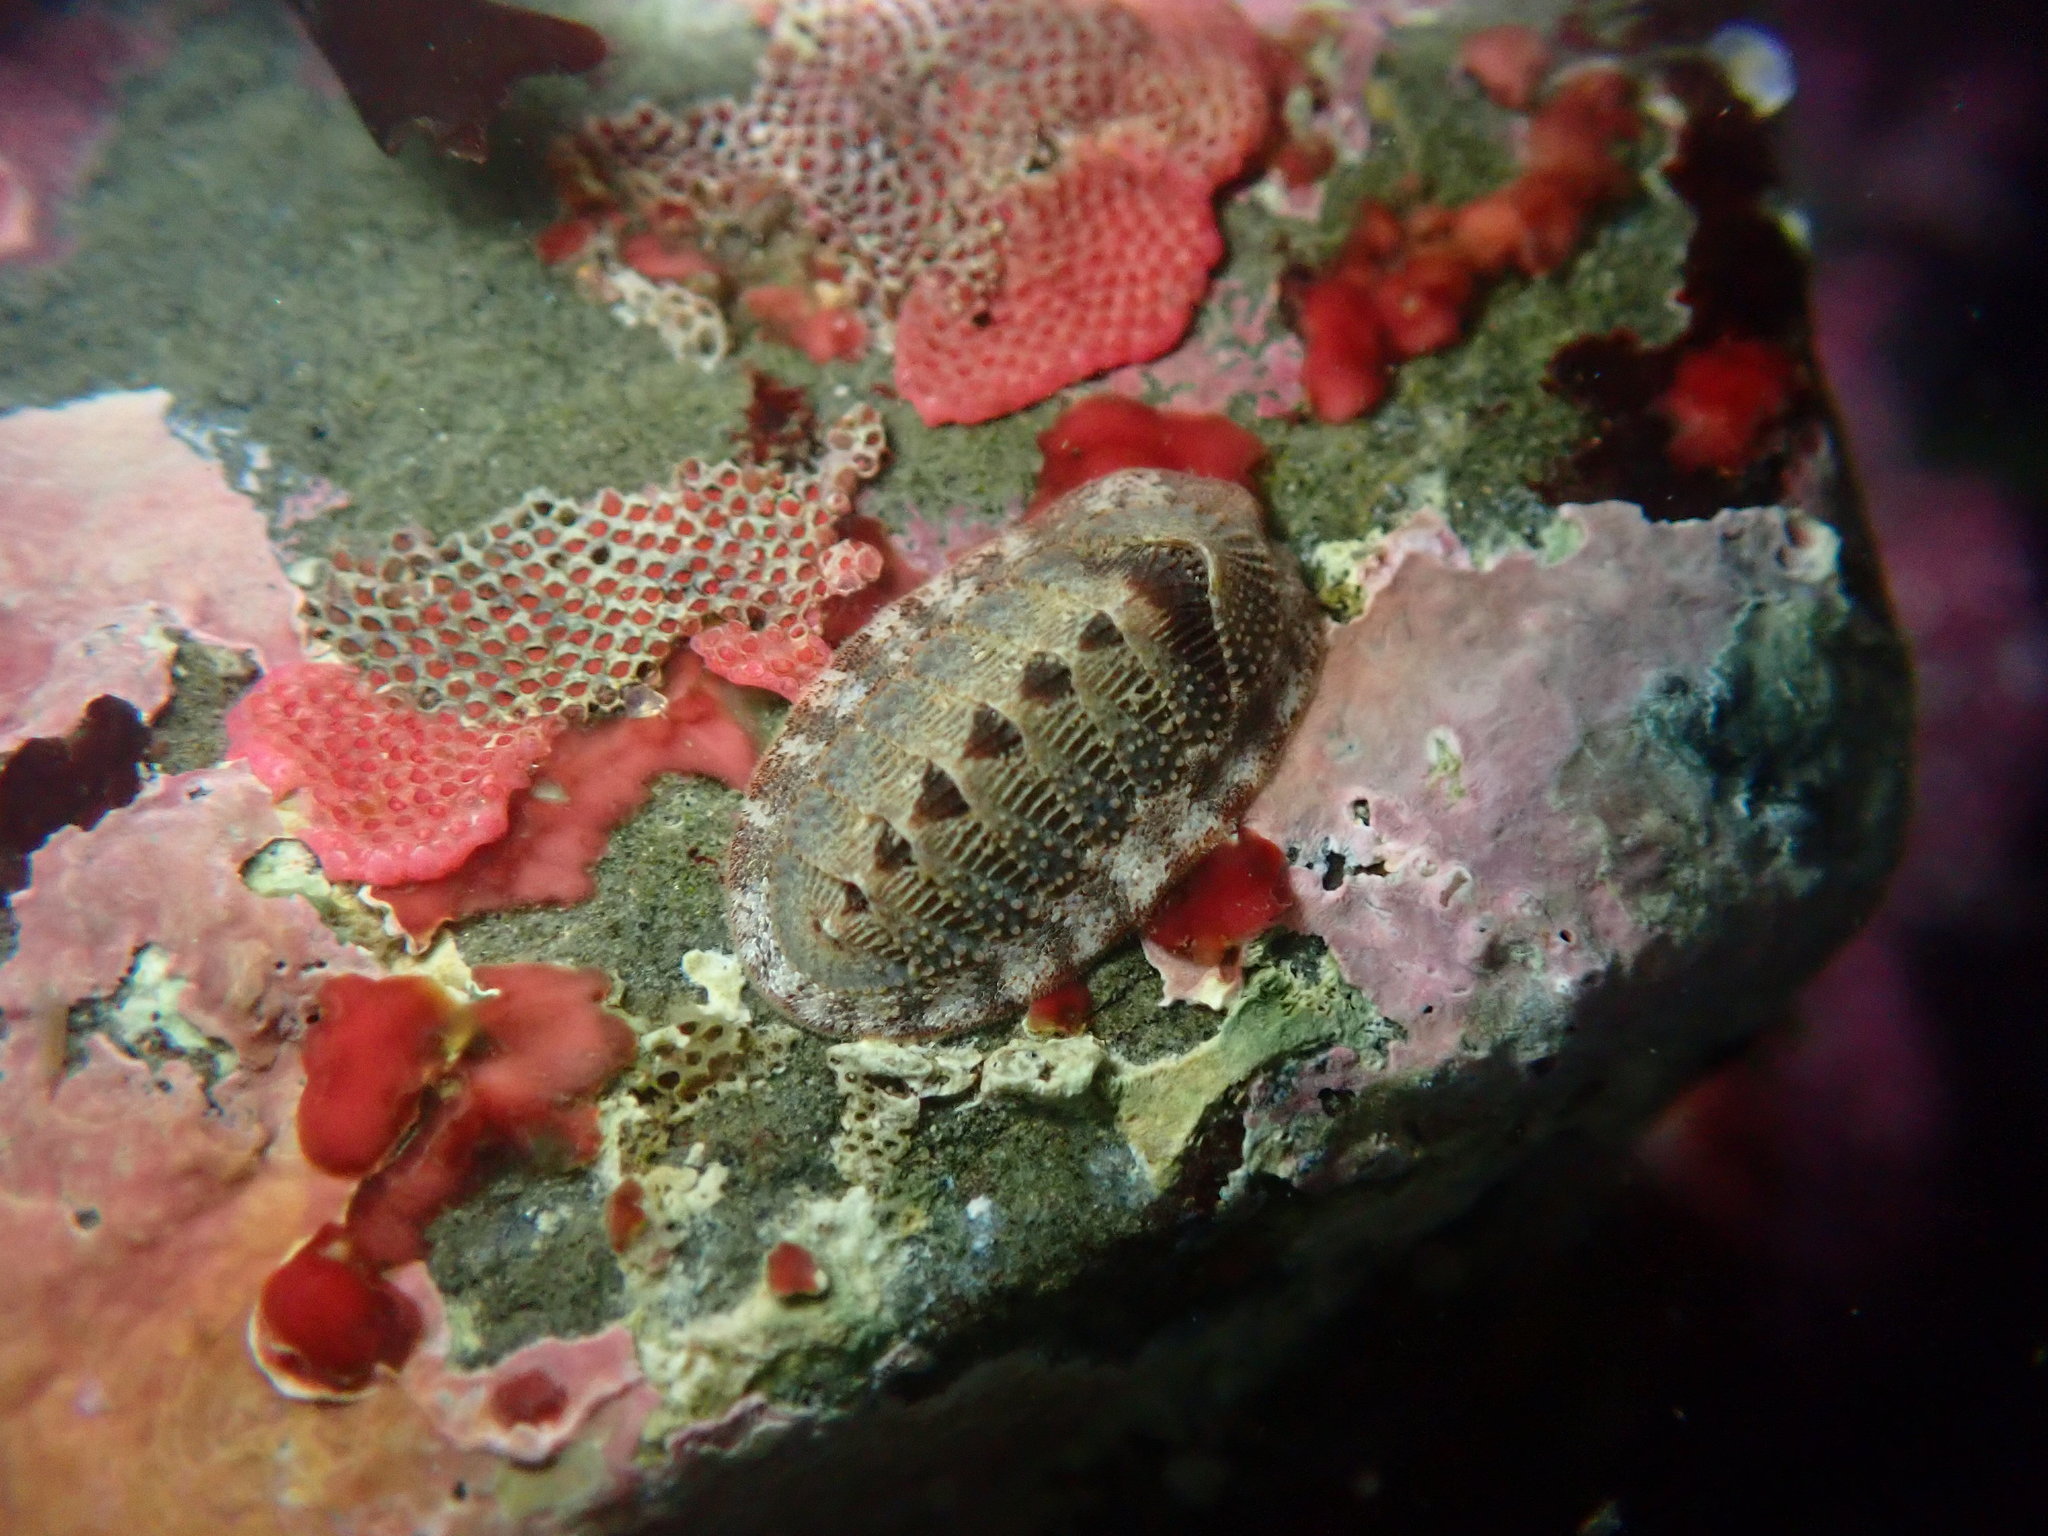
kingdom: Animalia
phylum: Mollusca
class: Polyplacophora
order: Chitonida
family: Ischnochitonidae
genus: Lepidozona
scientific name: Lepidozona cooperi
